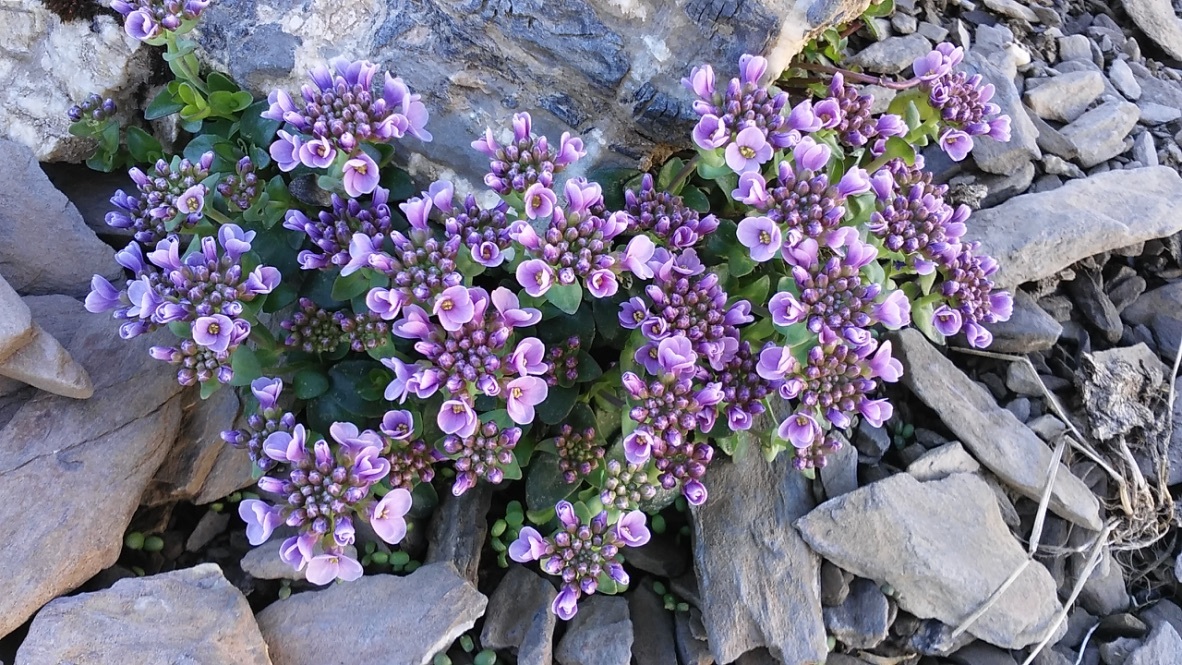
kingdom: Plantae
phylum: Tracheophyta
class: Magnoliopsida
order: Brassicales
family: Brassicaceae
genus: Noccaea
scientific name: Noccaea rotundifolia
